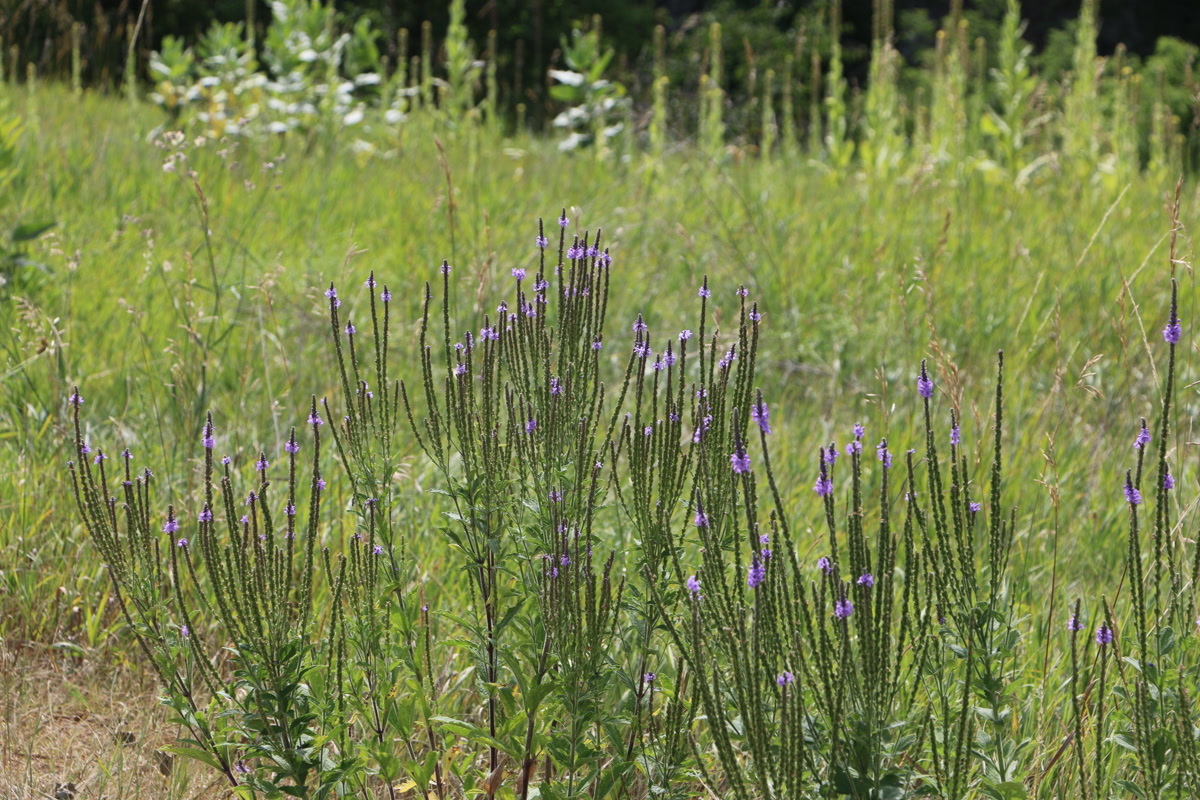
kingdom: Plantae
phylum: Tracheophyta
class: Magnoliopsida
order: Lamiales
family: Verbenaceae
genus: Verbena
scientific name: Verbena hastata
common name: American blue vervain
